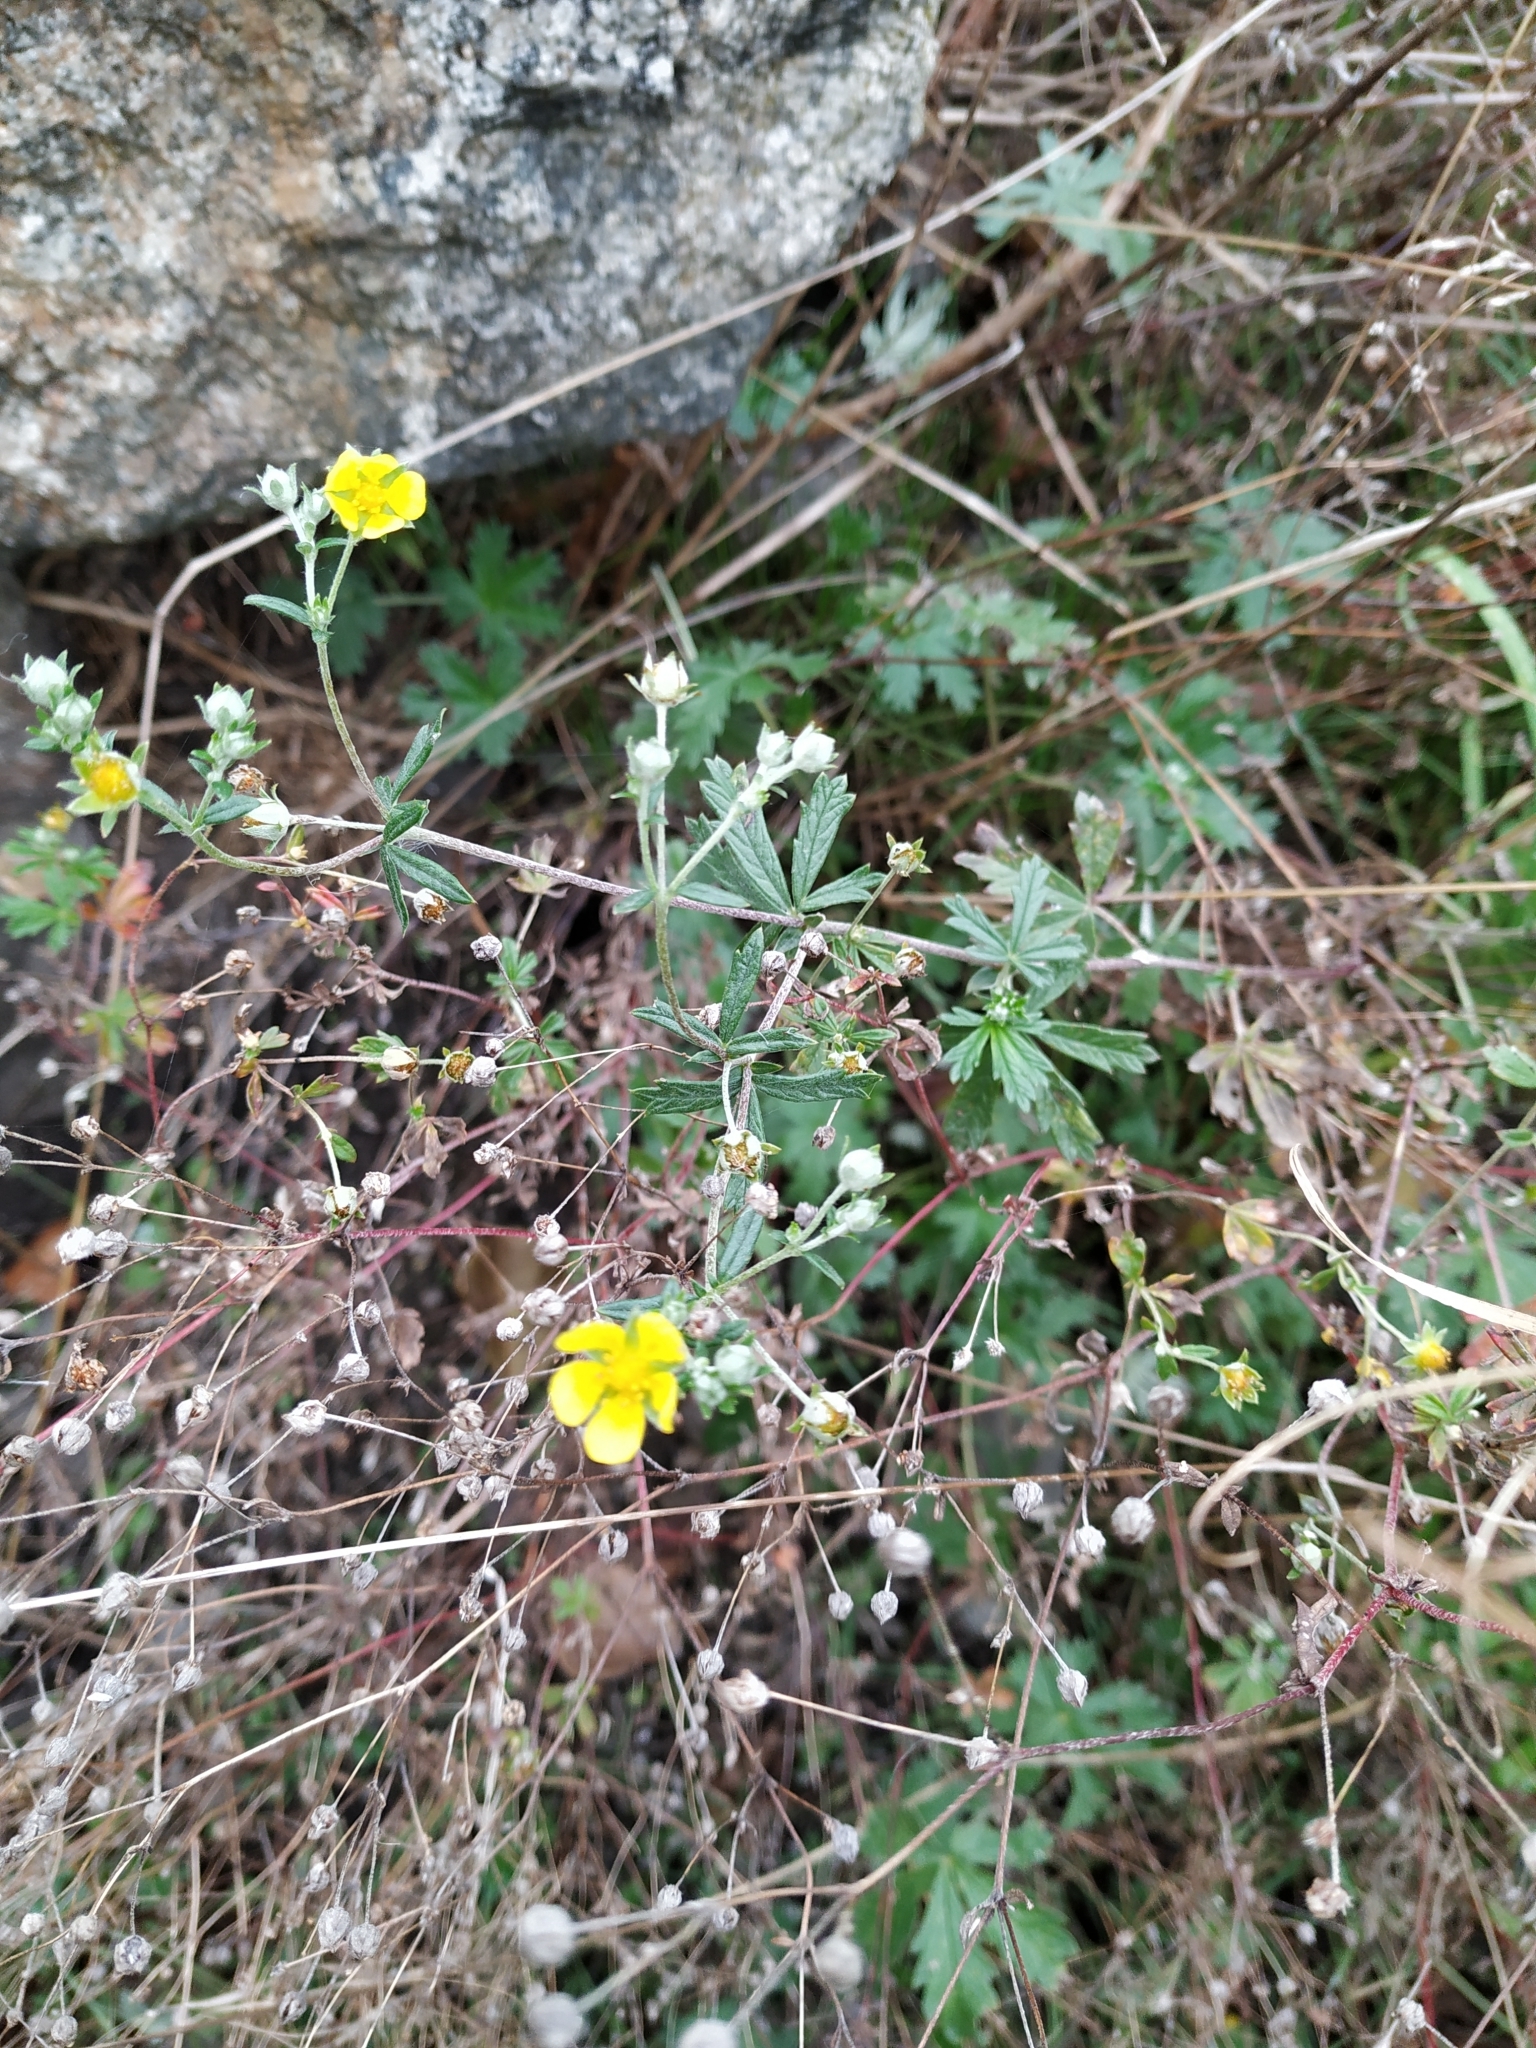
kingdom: Plantae
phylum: Tracheophyta
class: Magnoliopsida
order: Rosales
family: Rosaceae
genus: Potentilla
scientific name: Potentilla argentea
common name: Hoary cinquefoil
